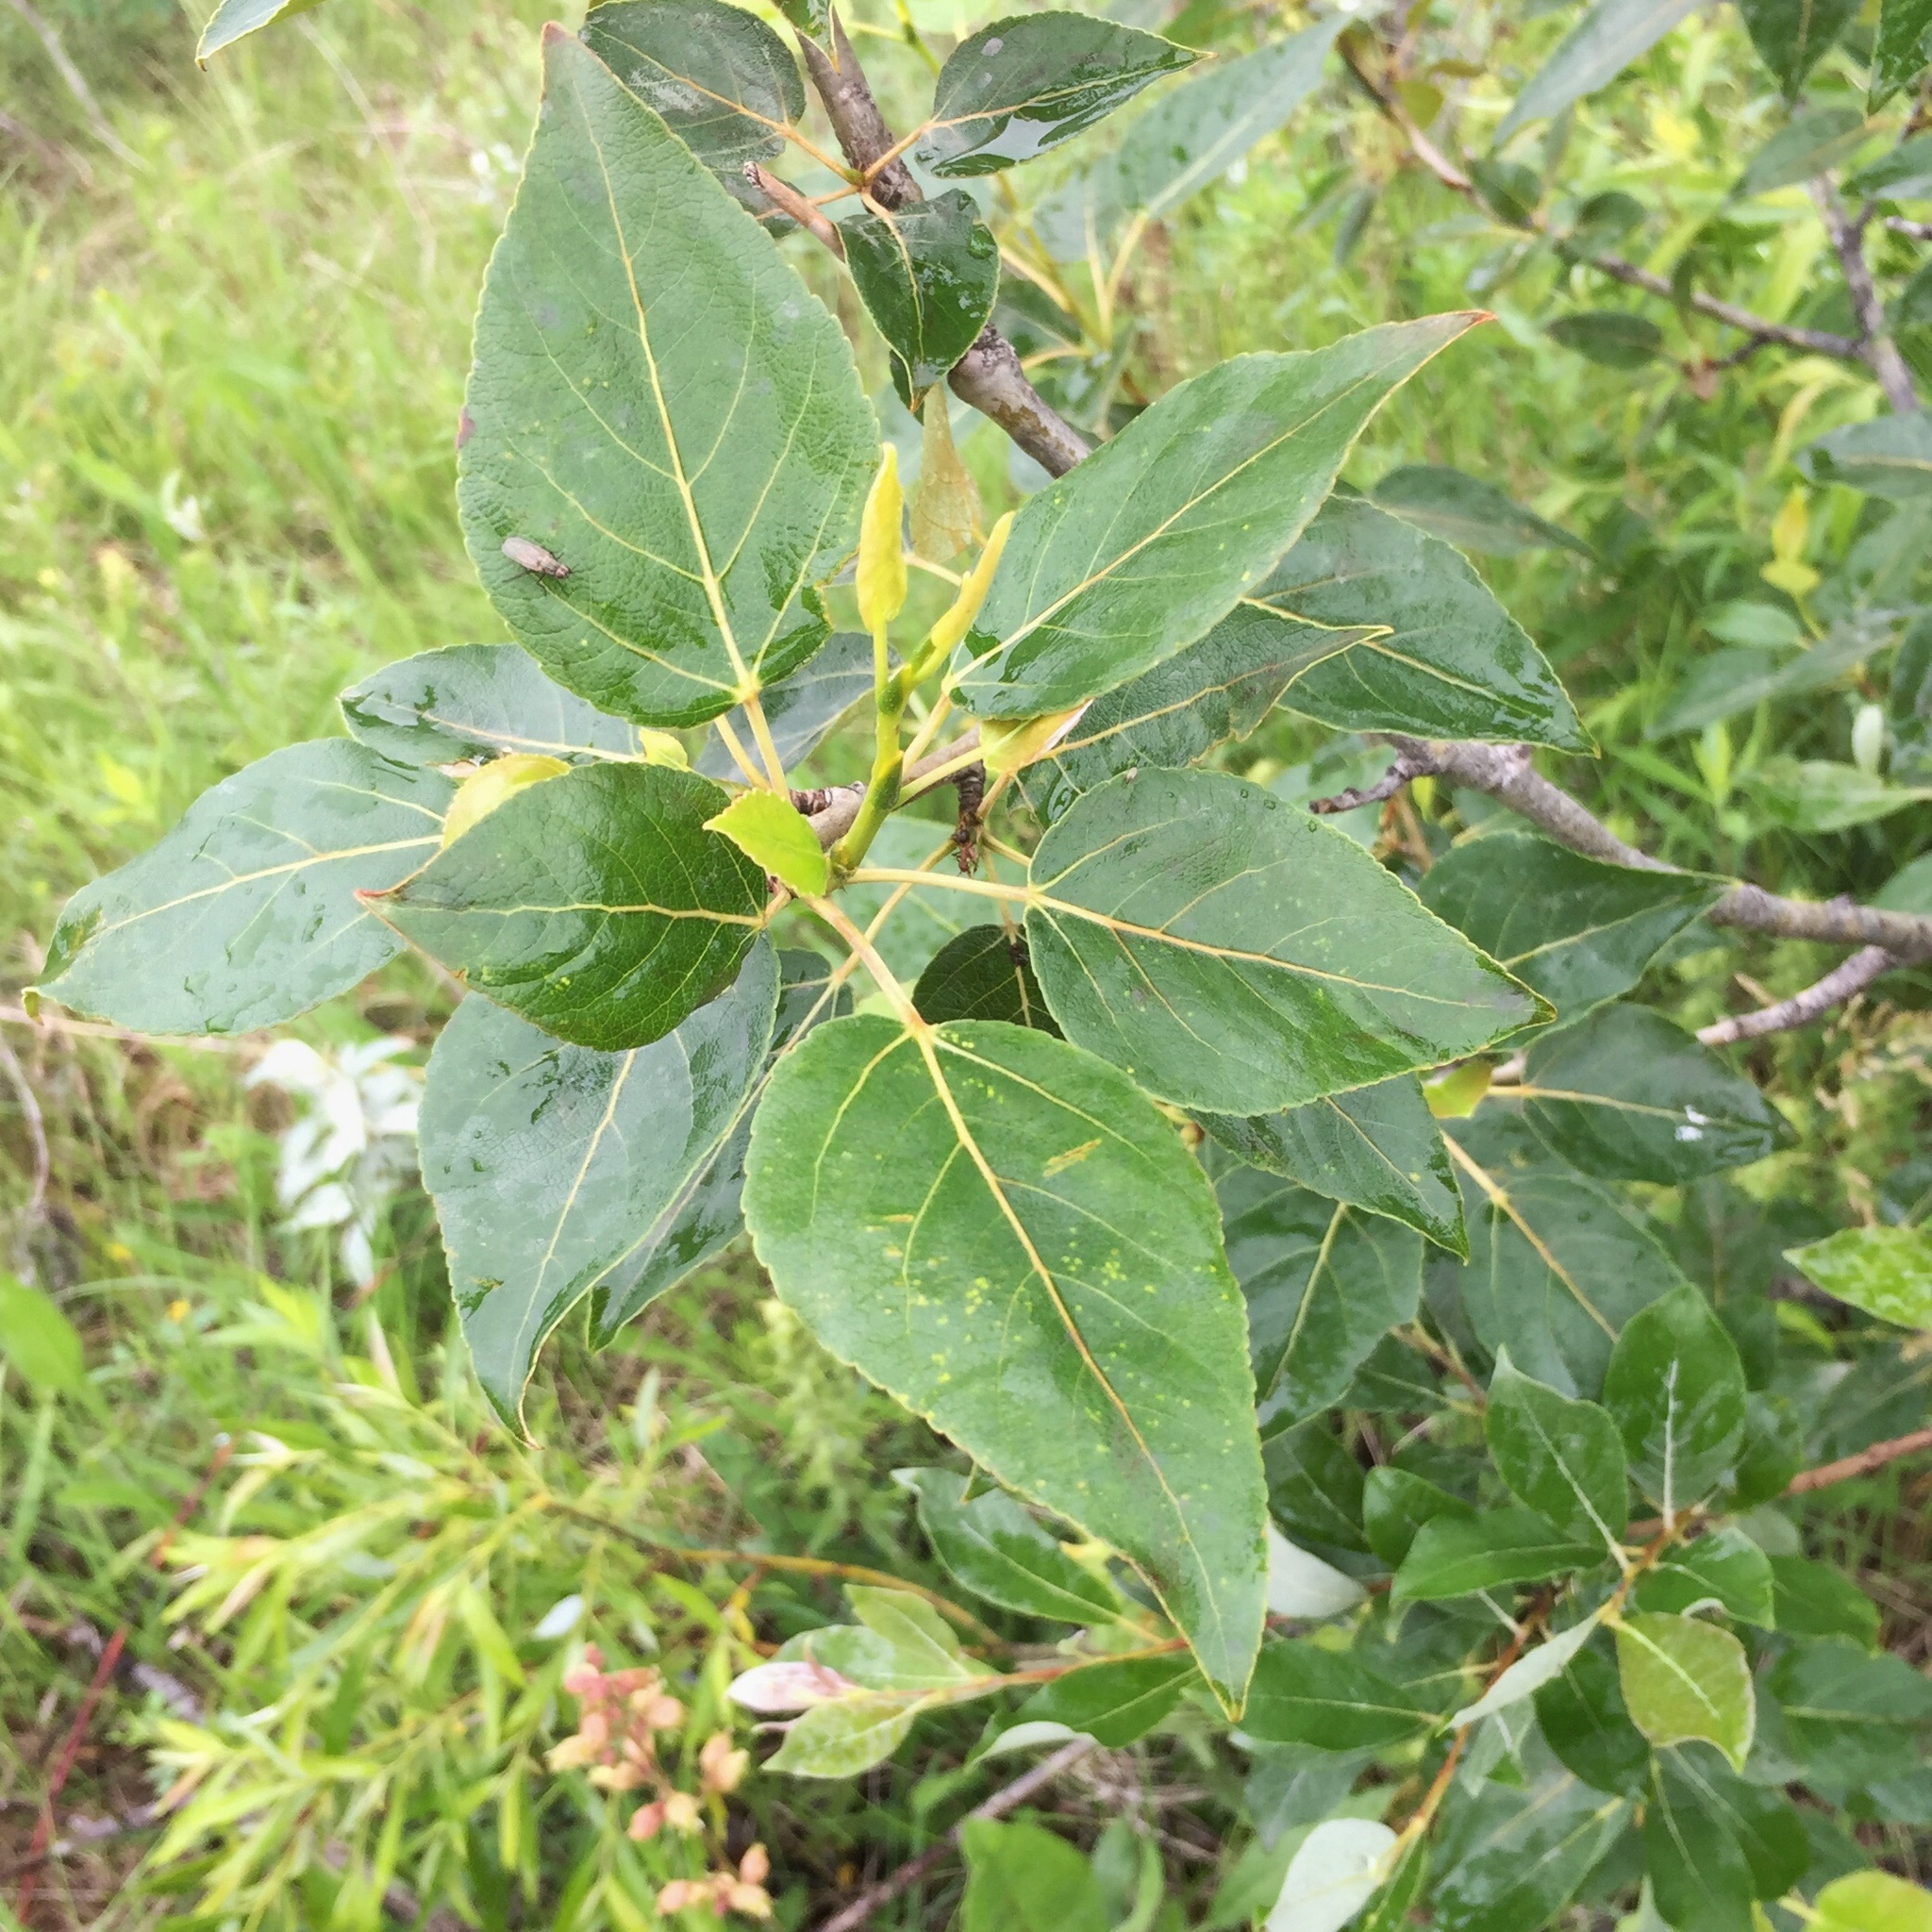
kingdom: Plantae
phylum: Tracheophyta
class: Magnoliopsida
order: Malpighiales
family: Salicaceae
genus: Populus
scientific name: Populus balsamifera
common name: Balsam poplar
